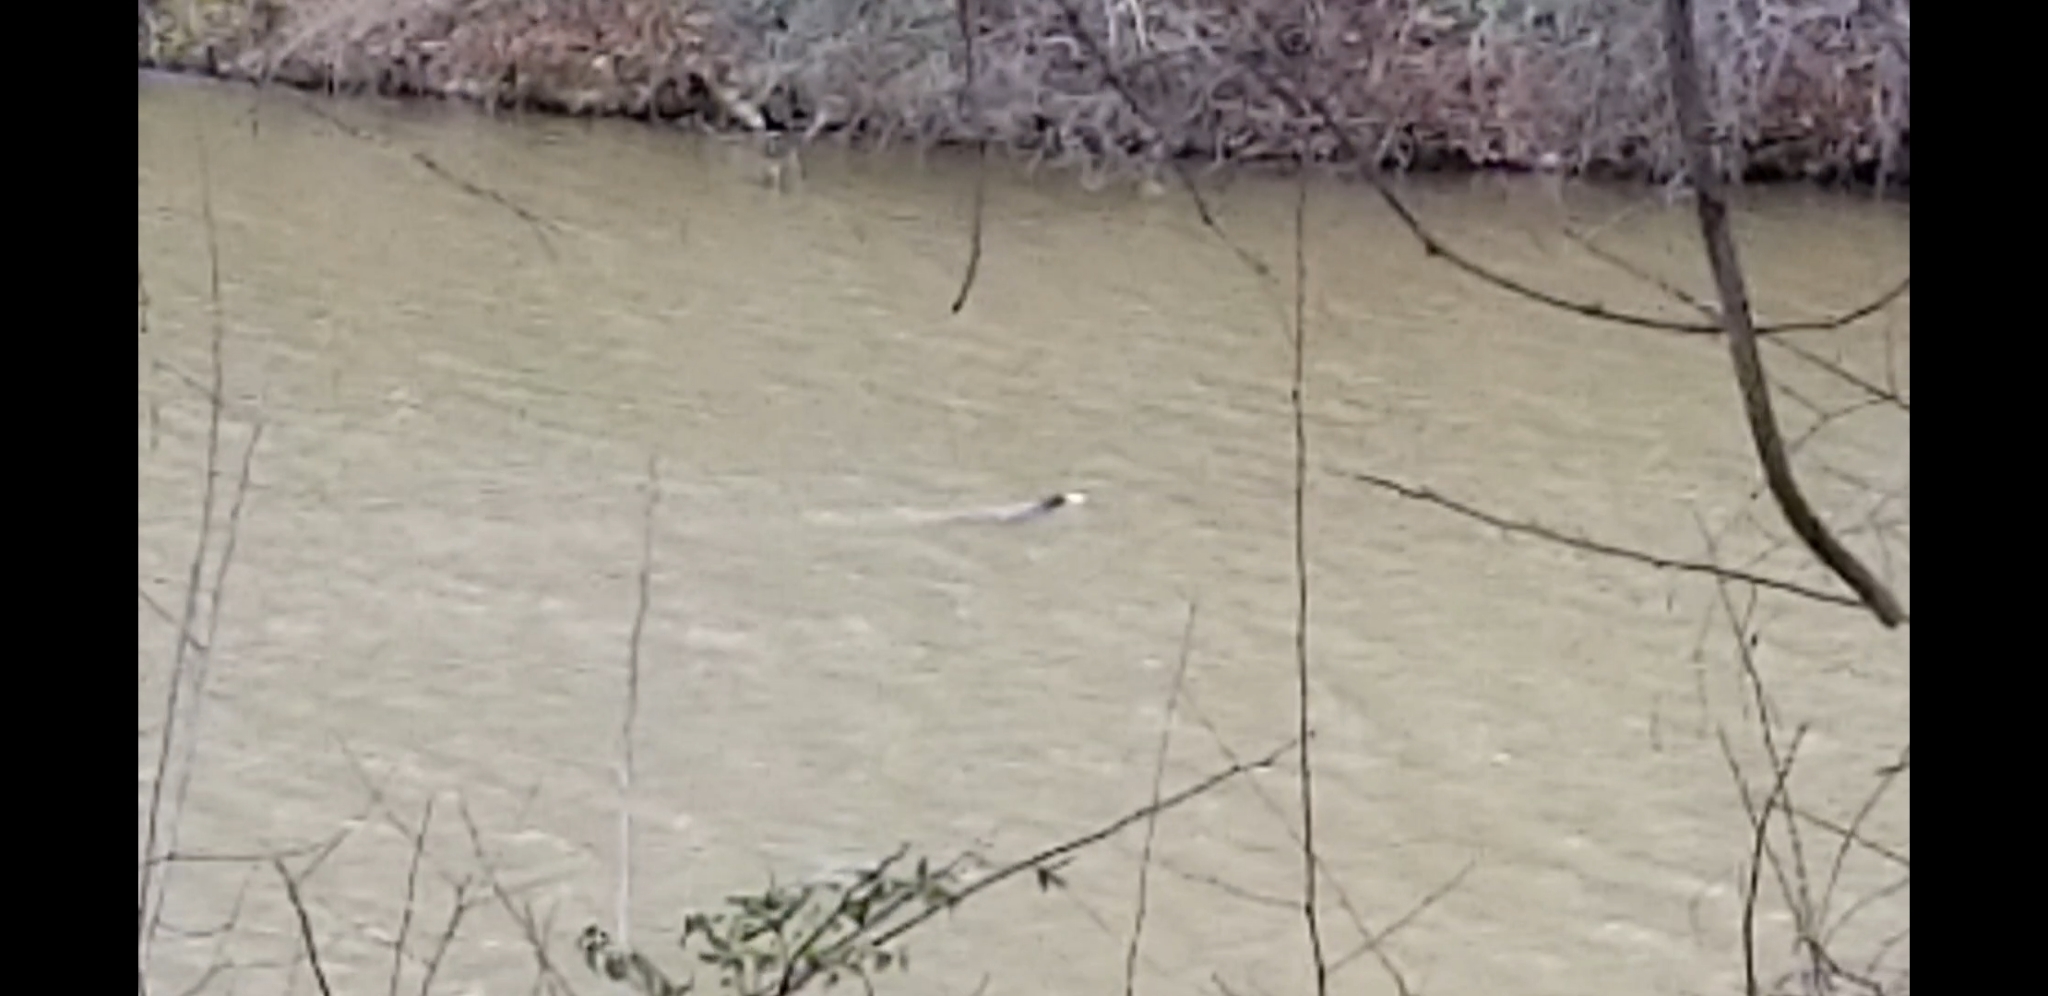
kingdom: Animalia
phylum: Chordata
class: Mammalia
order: Carnivora
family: Mustelidae
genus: Lontra
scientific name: Lontra canadensis
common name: North american river otter
